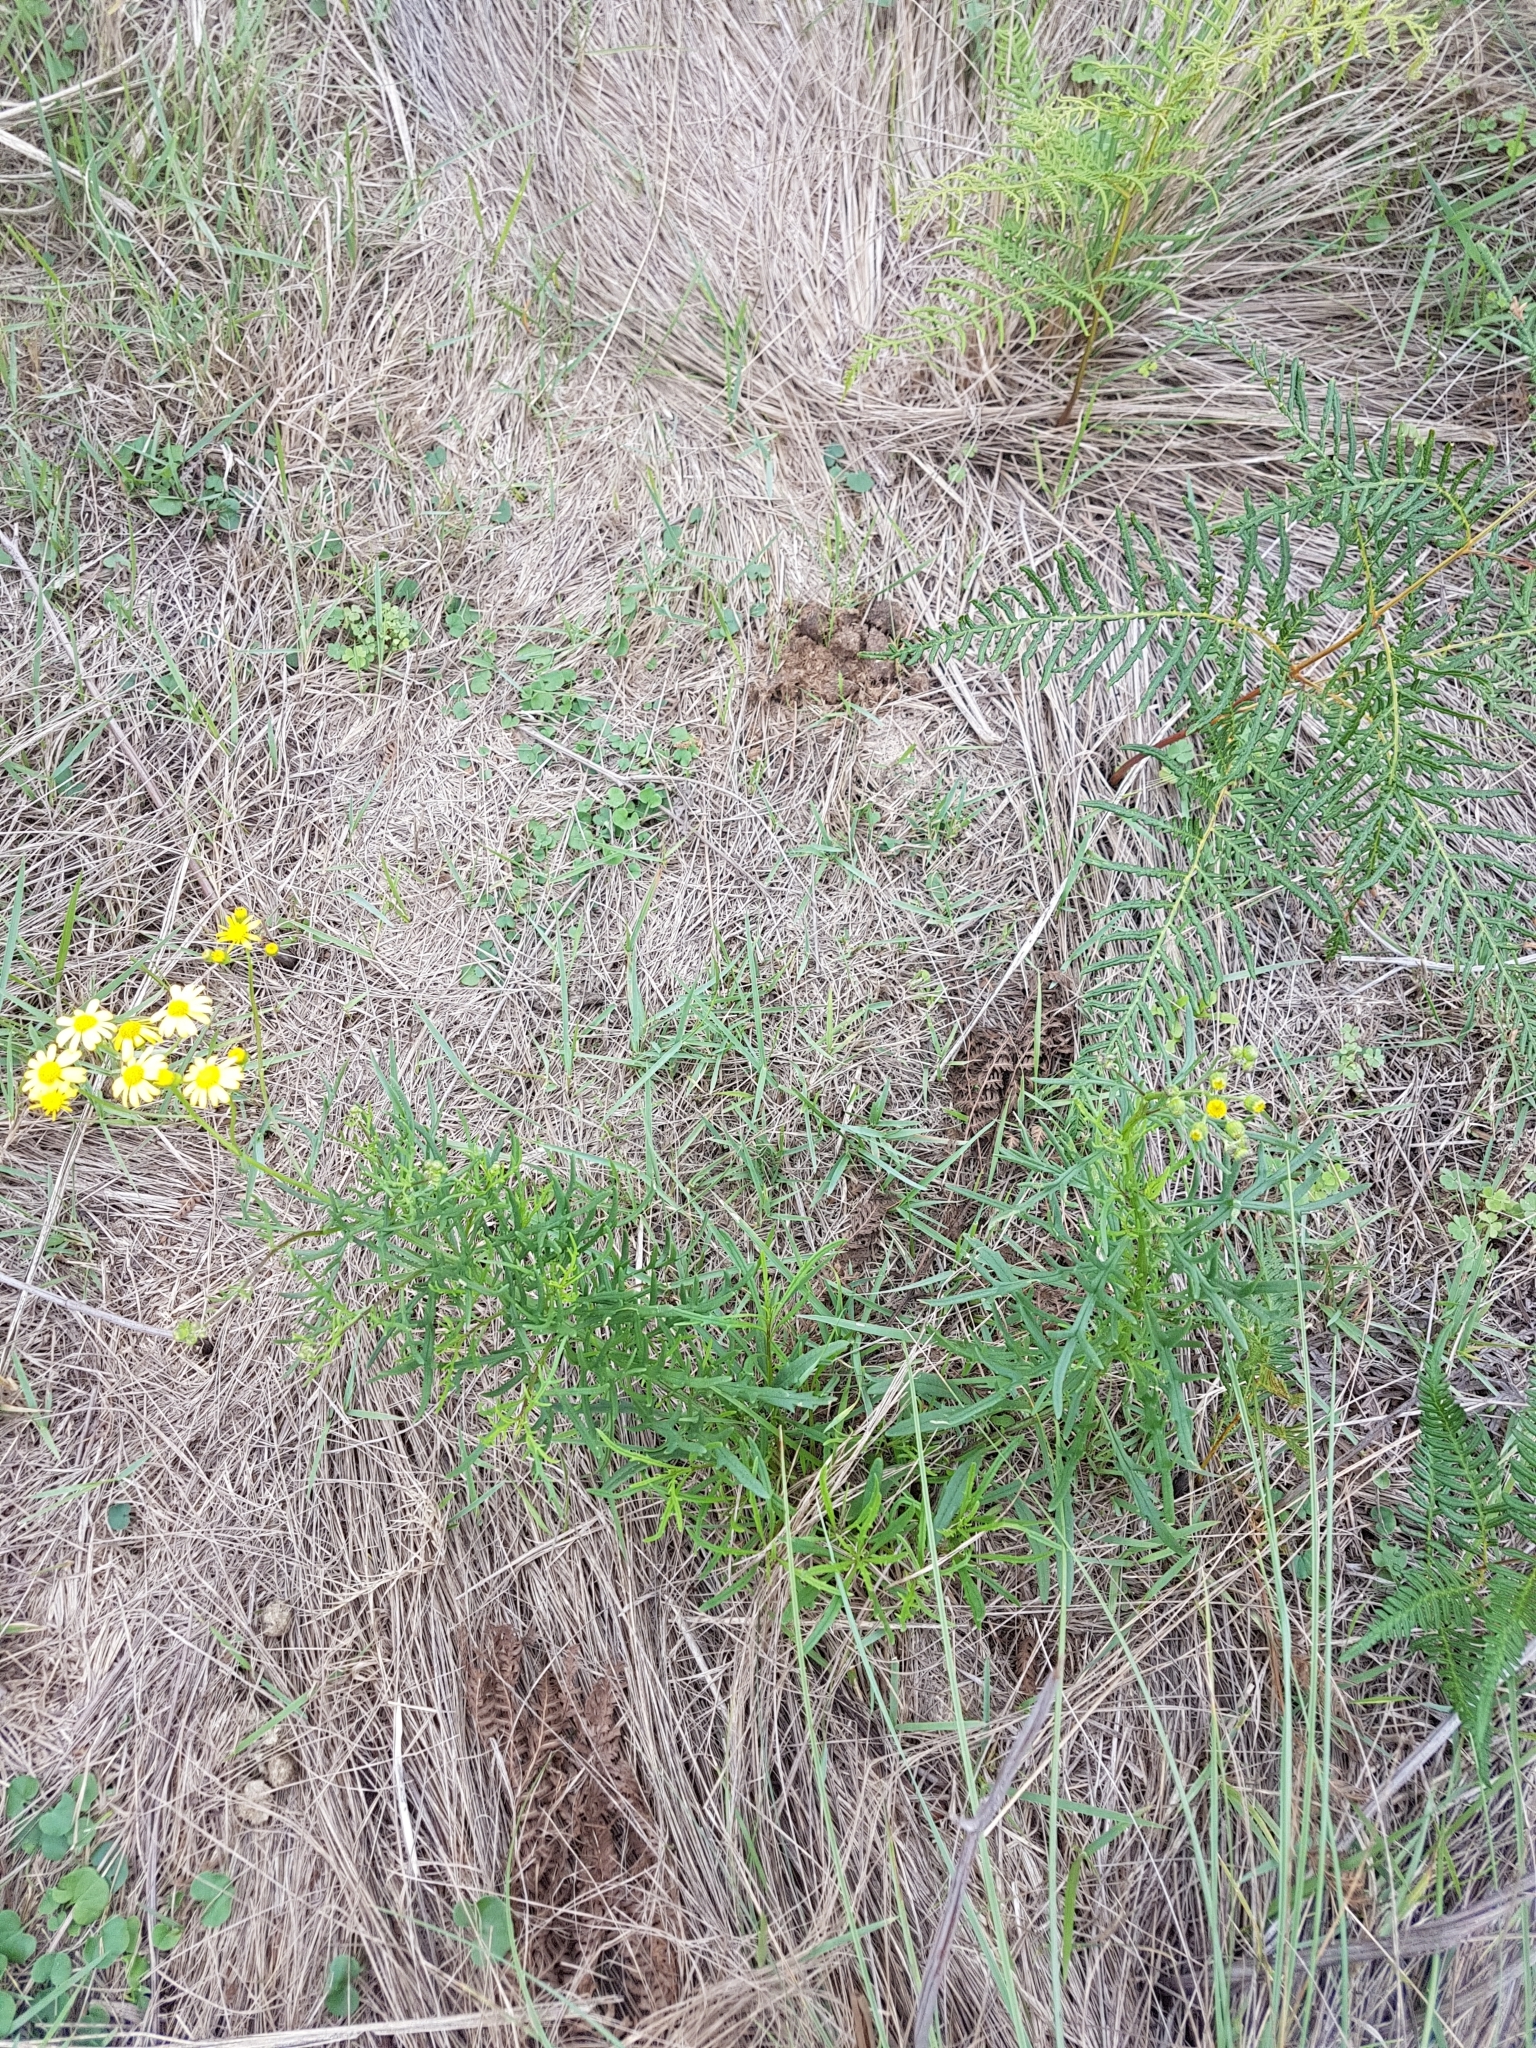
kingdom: Plantae
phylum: Tracheophyta
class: Magnoliopsida
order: Asterales
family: Asteraceae
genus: Senecio
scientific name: Senecio madagascariensis
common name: Madagascar ragwort
